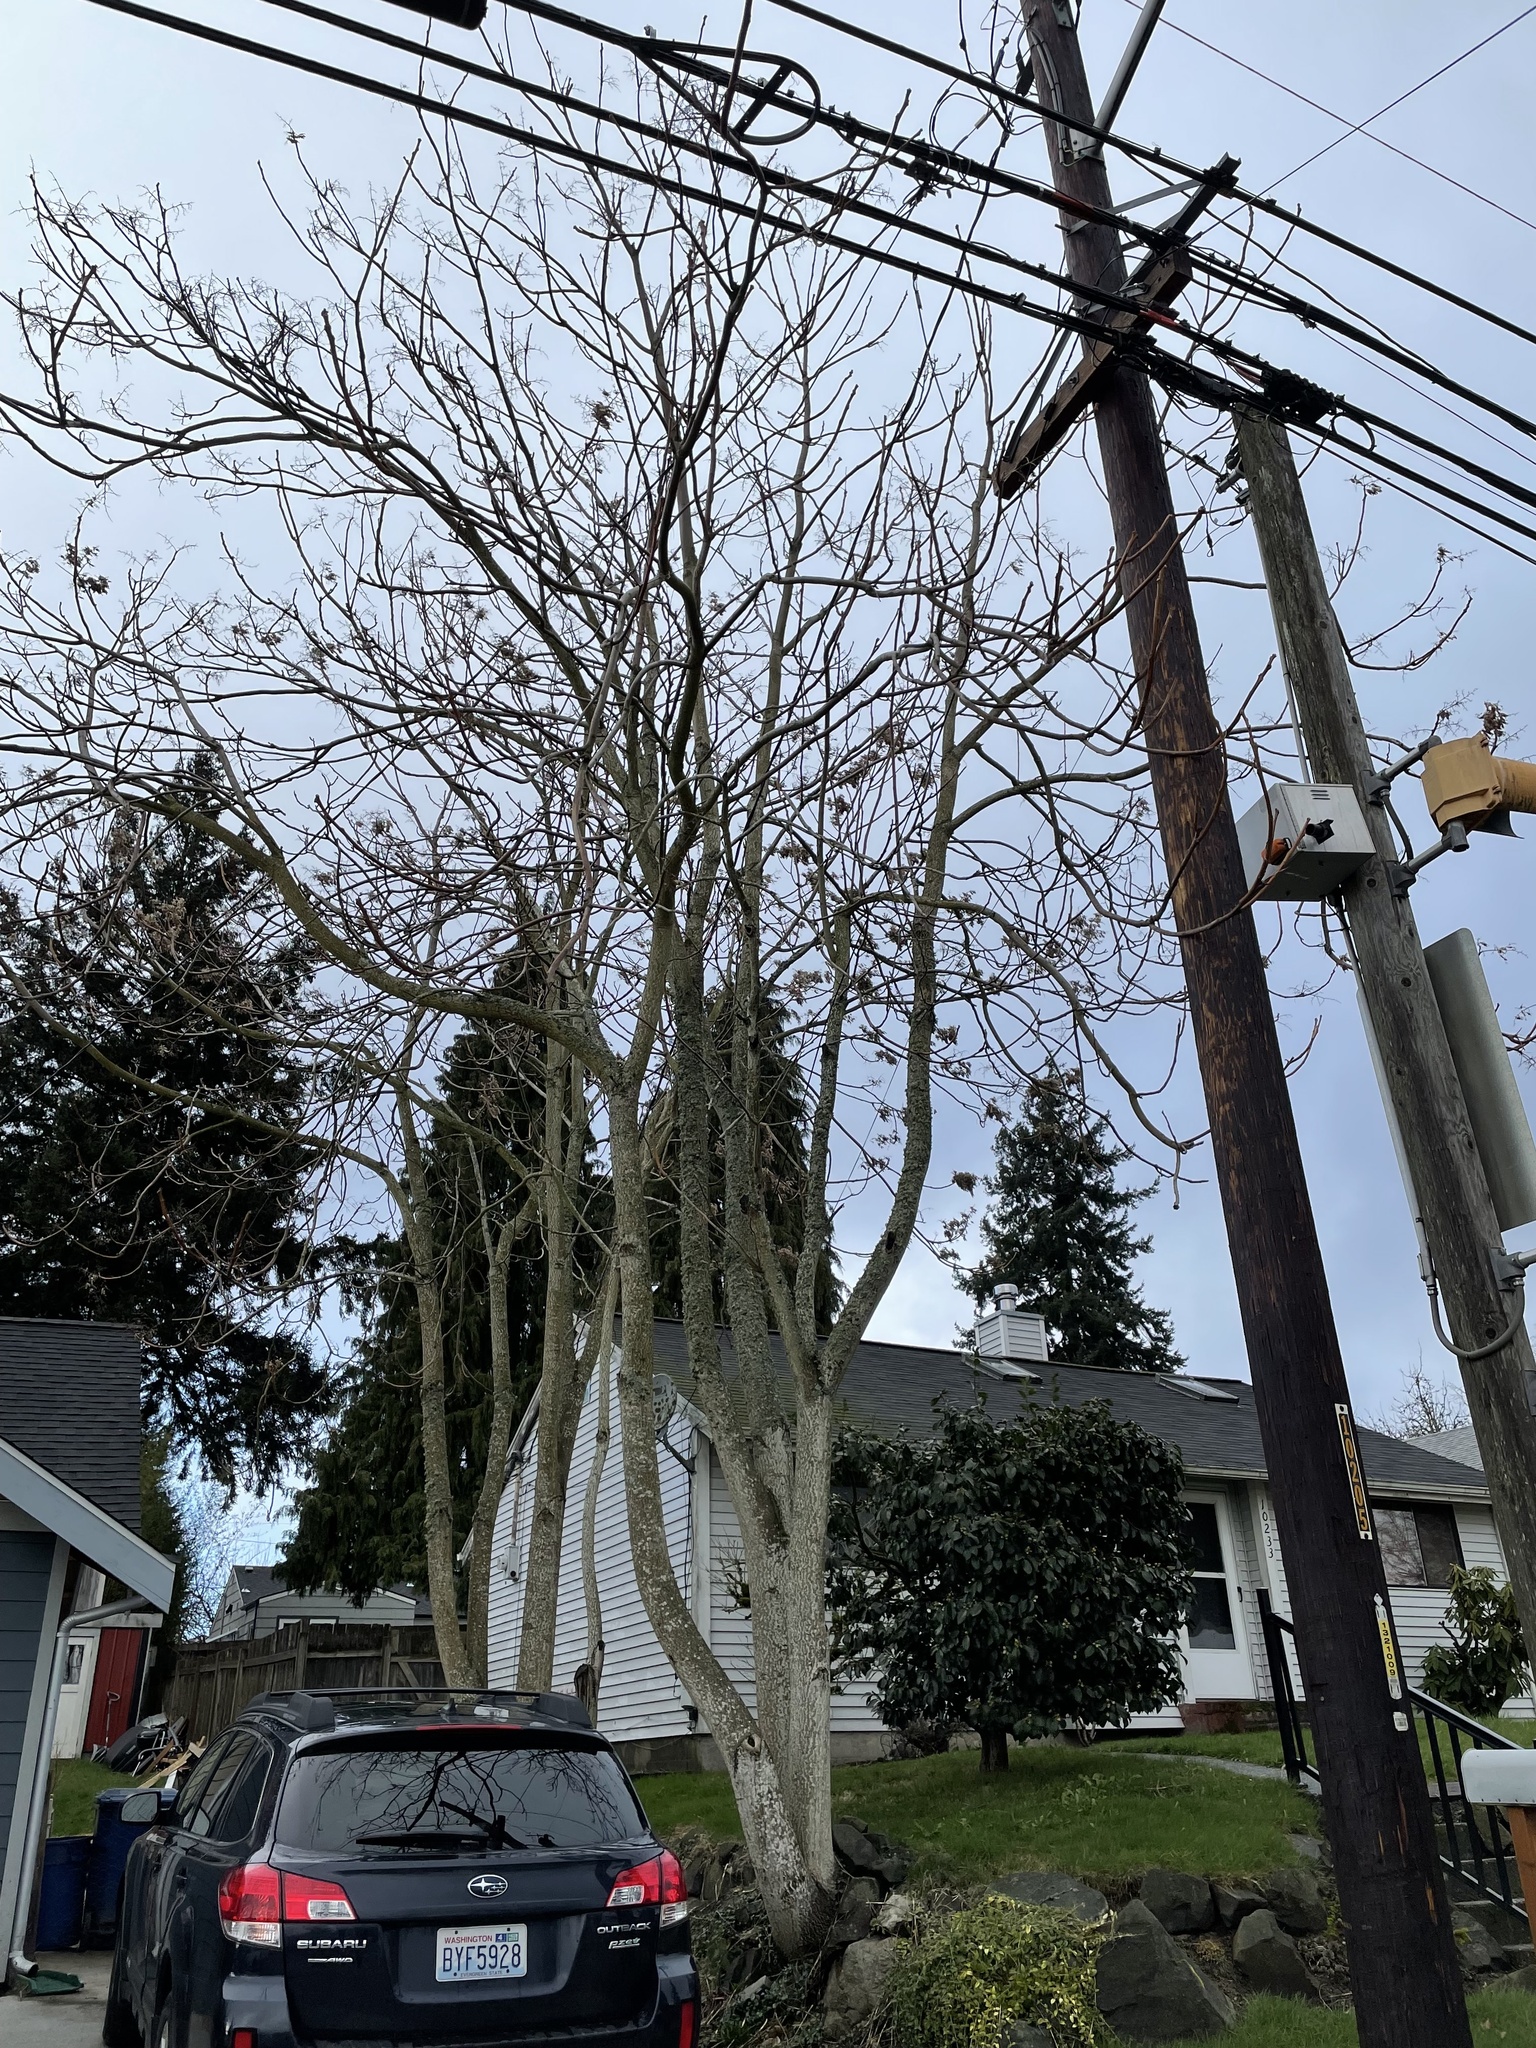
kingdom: Plantae
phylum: Tracheophyta
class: Magnoliopsida
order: Sapindales
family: Simaroubaceae
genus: Ailanthus
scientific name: Ailanthus altissima
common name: Tree-of-heaven
